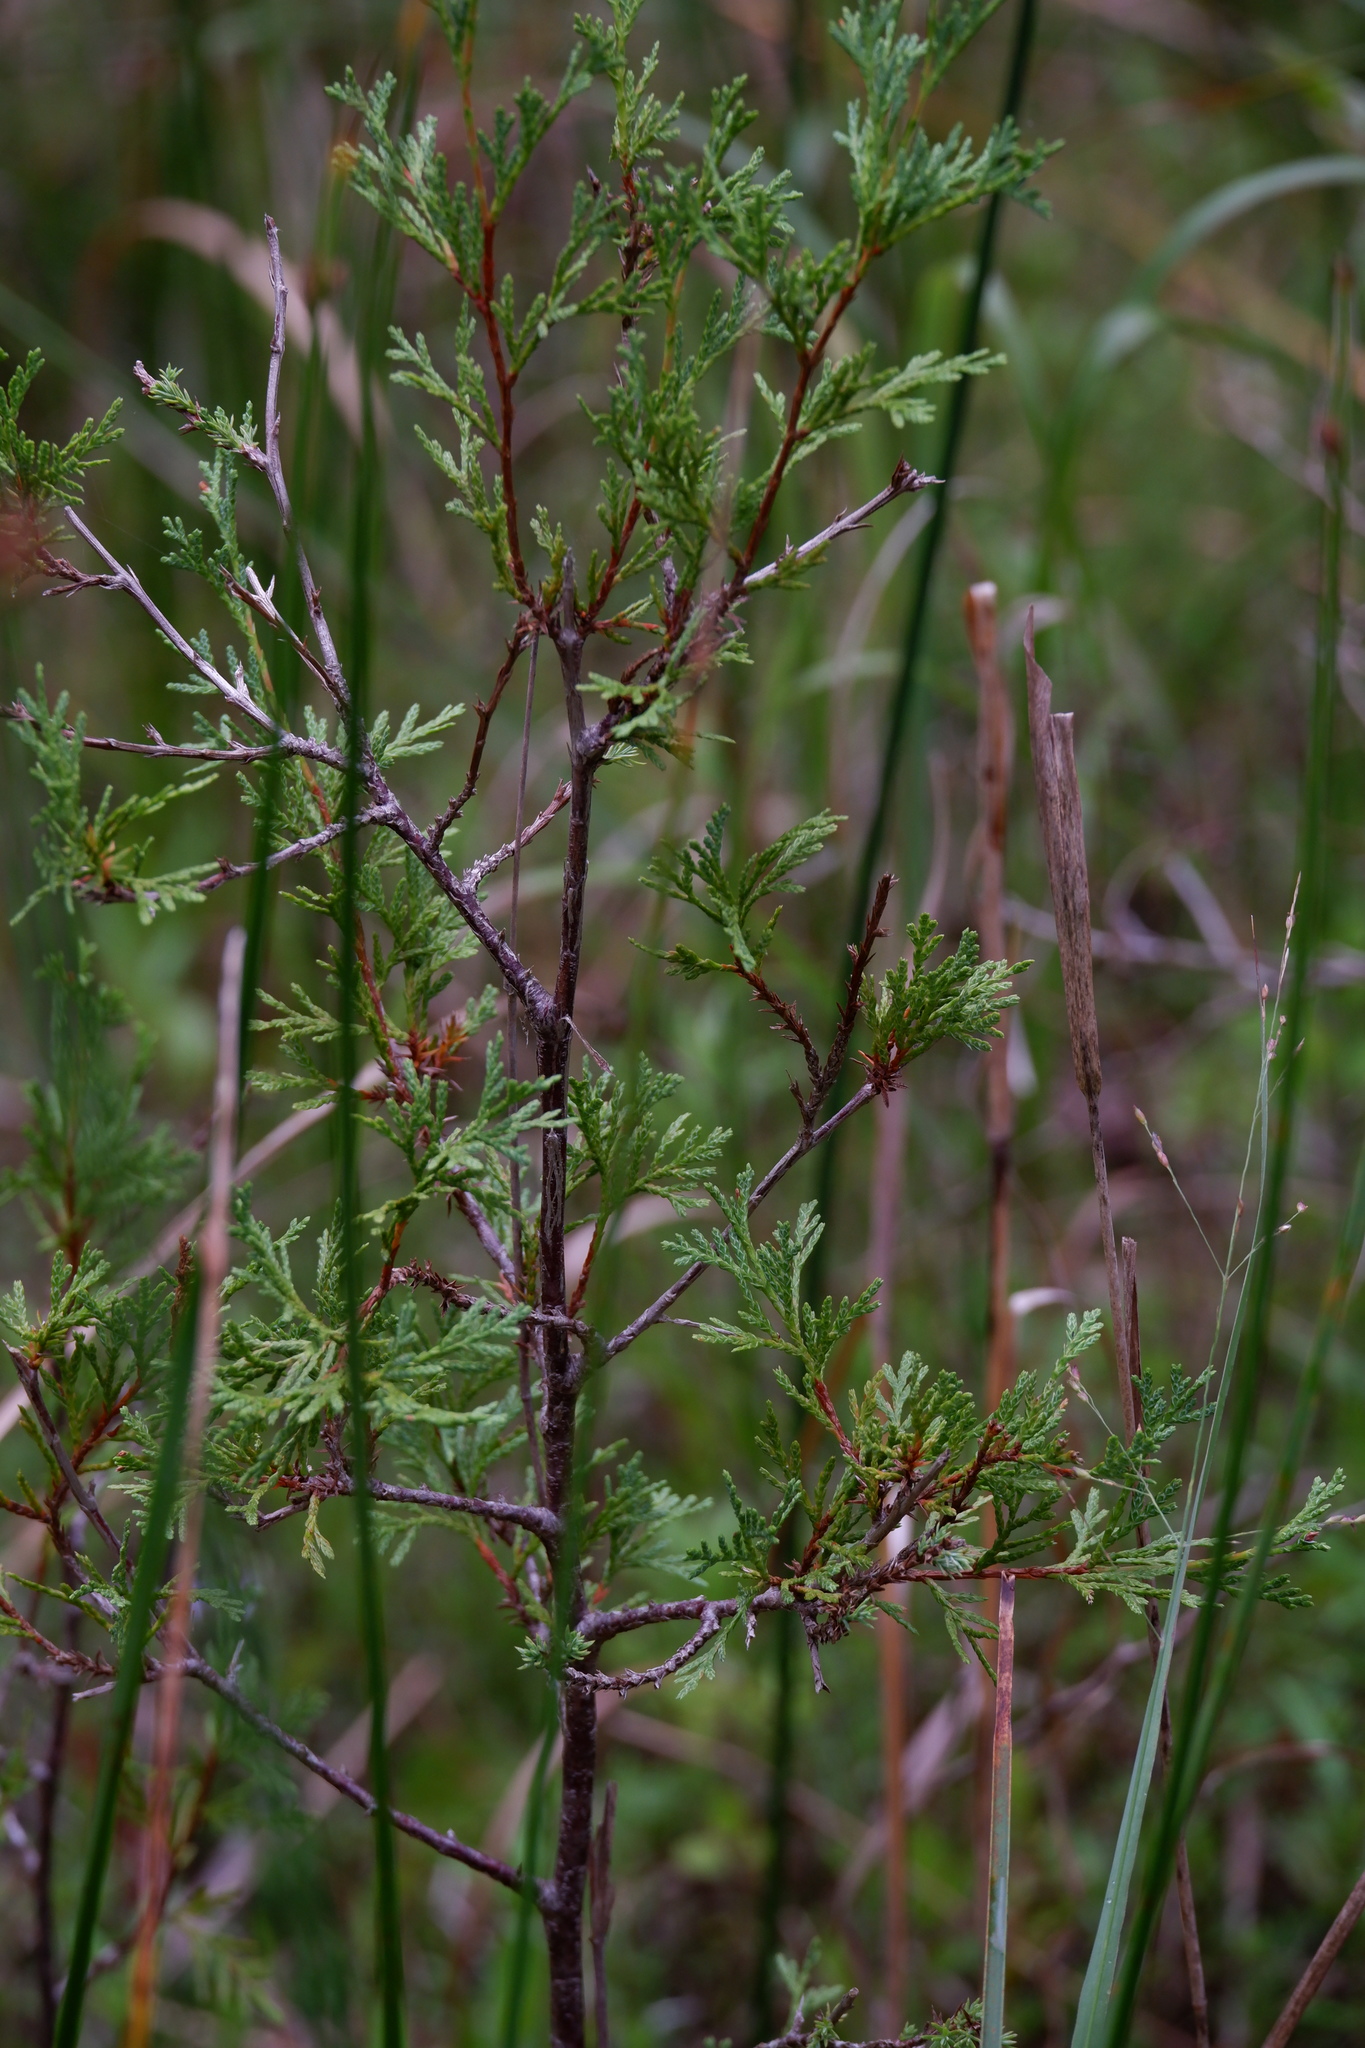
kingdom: Plantae
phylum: Tracheophyta
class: Pinopsida
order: Pinales
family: Cupressaceae
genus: Chamaecyparis
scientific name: Chamaecyparis thyoides
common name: Atlantic white cedar
